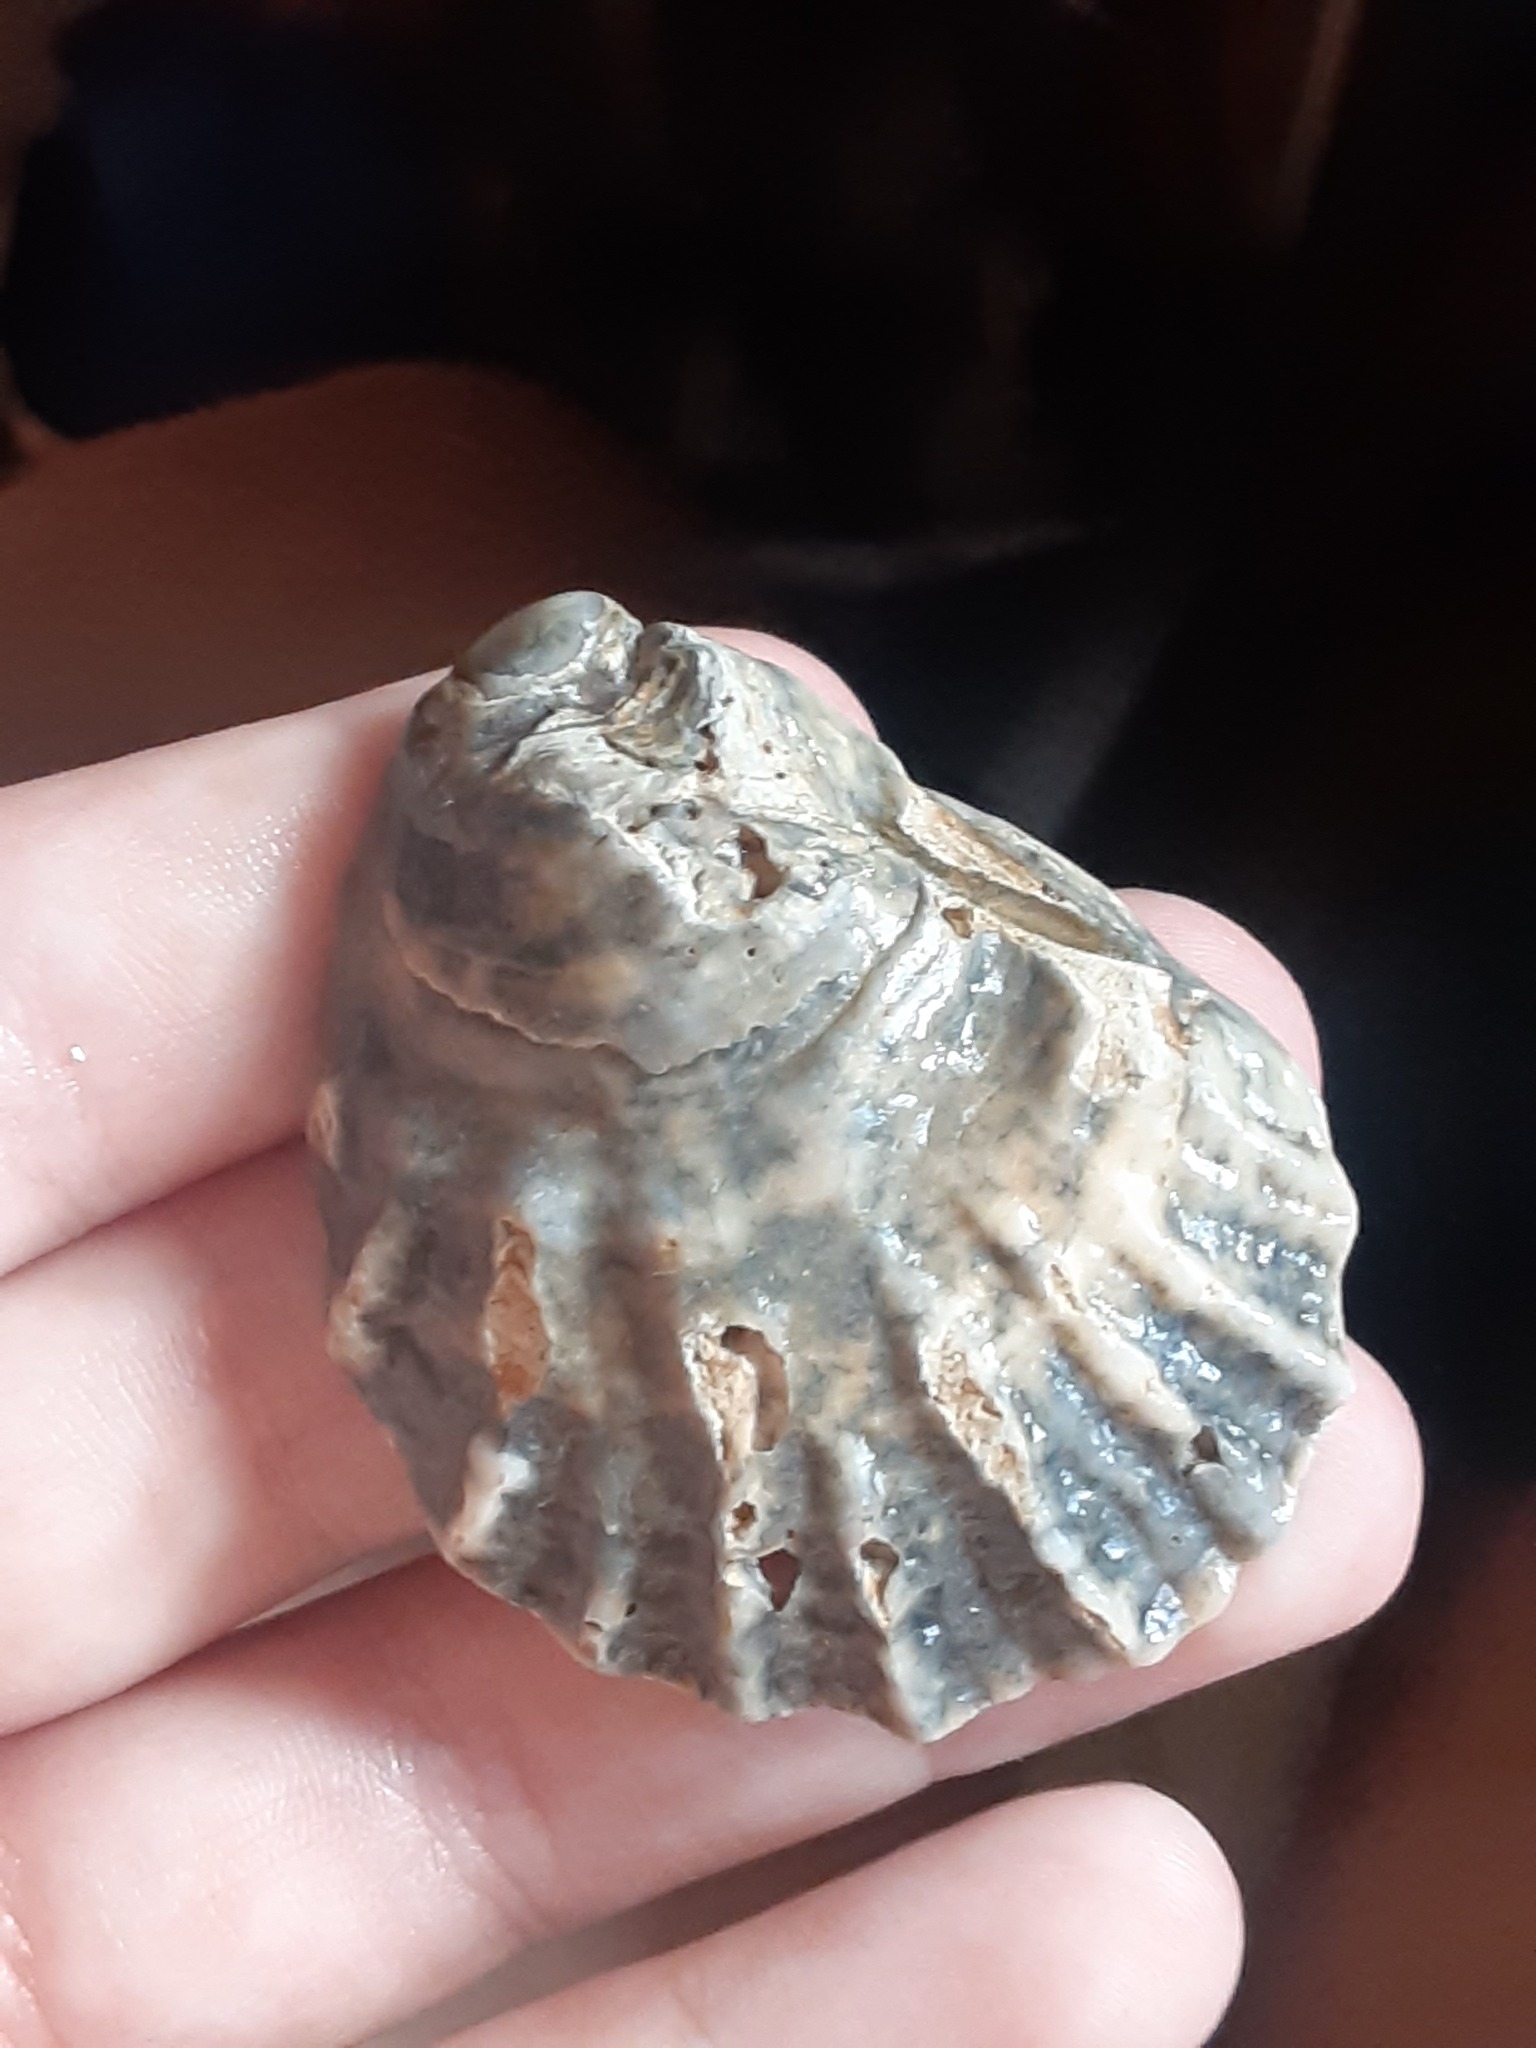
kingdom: Animalia
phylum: Mollusca
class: Bivalvia
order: Ostreida
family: Ostreidae
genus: Crassostrea
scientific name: Crassostrea virginica
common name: American oyster
